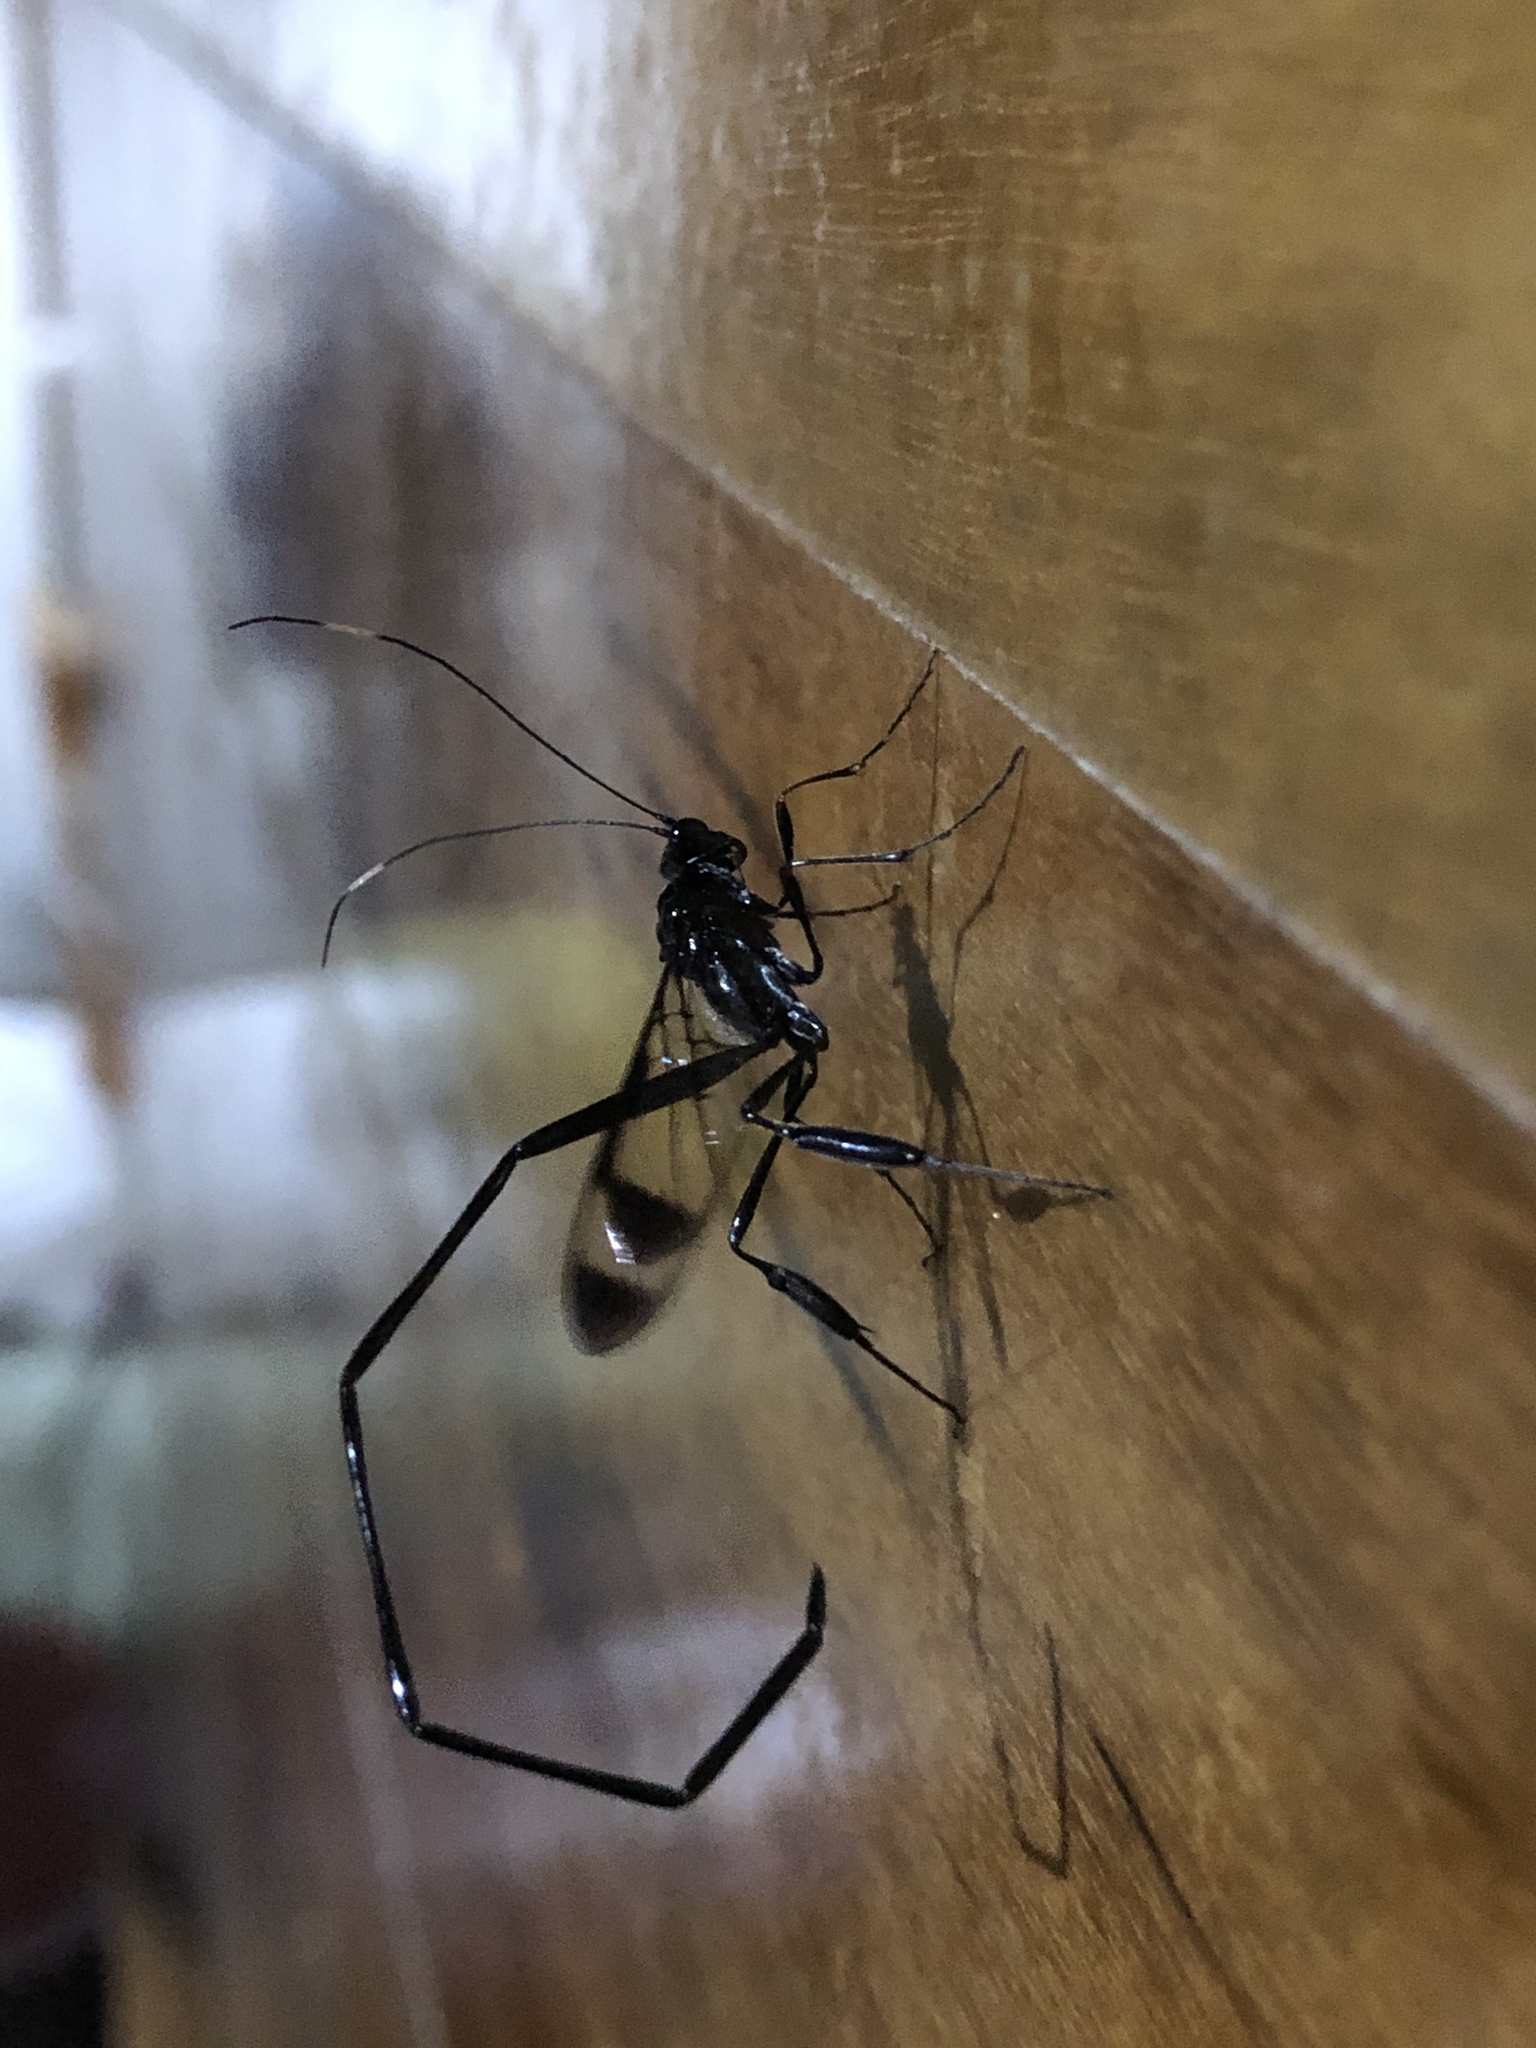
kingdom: Animalia
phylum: Arthropoda
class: Insecta
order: Hymenoptera
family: Pelecinidae
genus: Pelecinus
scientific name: Pelecinus polyturator
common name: American pelecinid wasp
